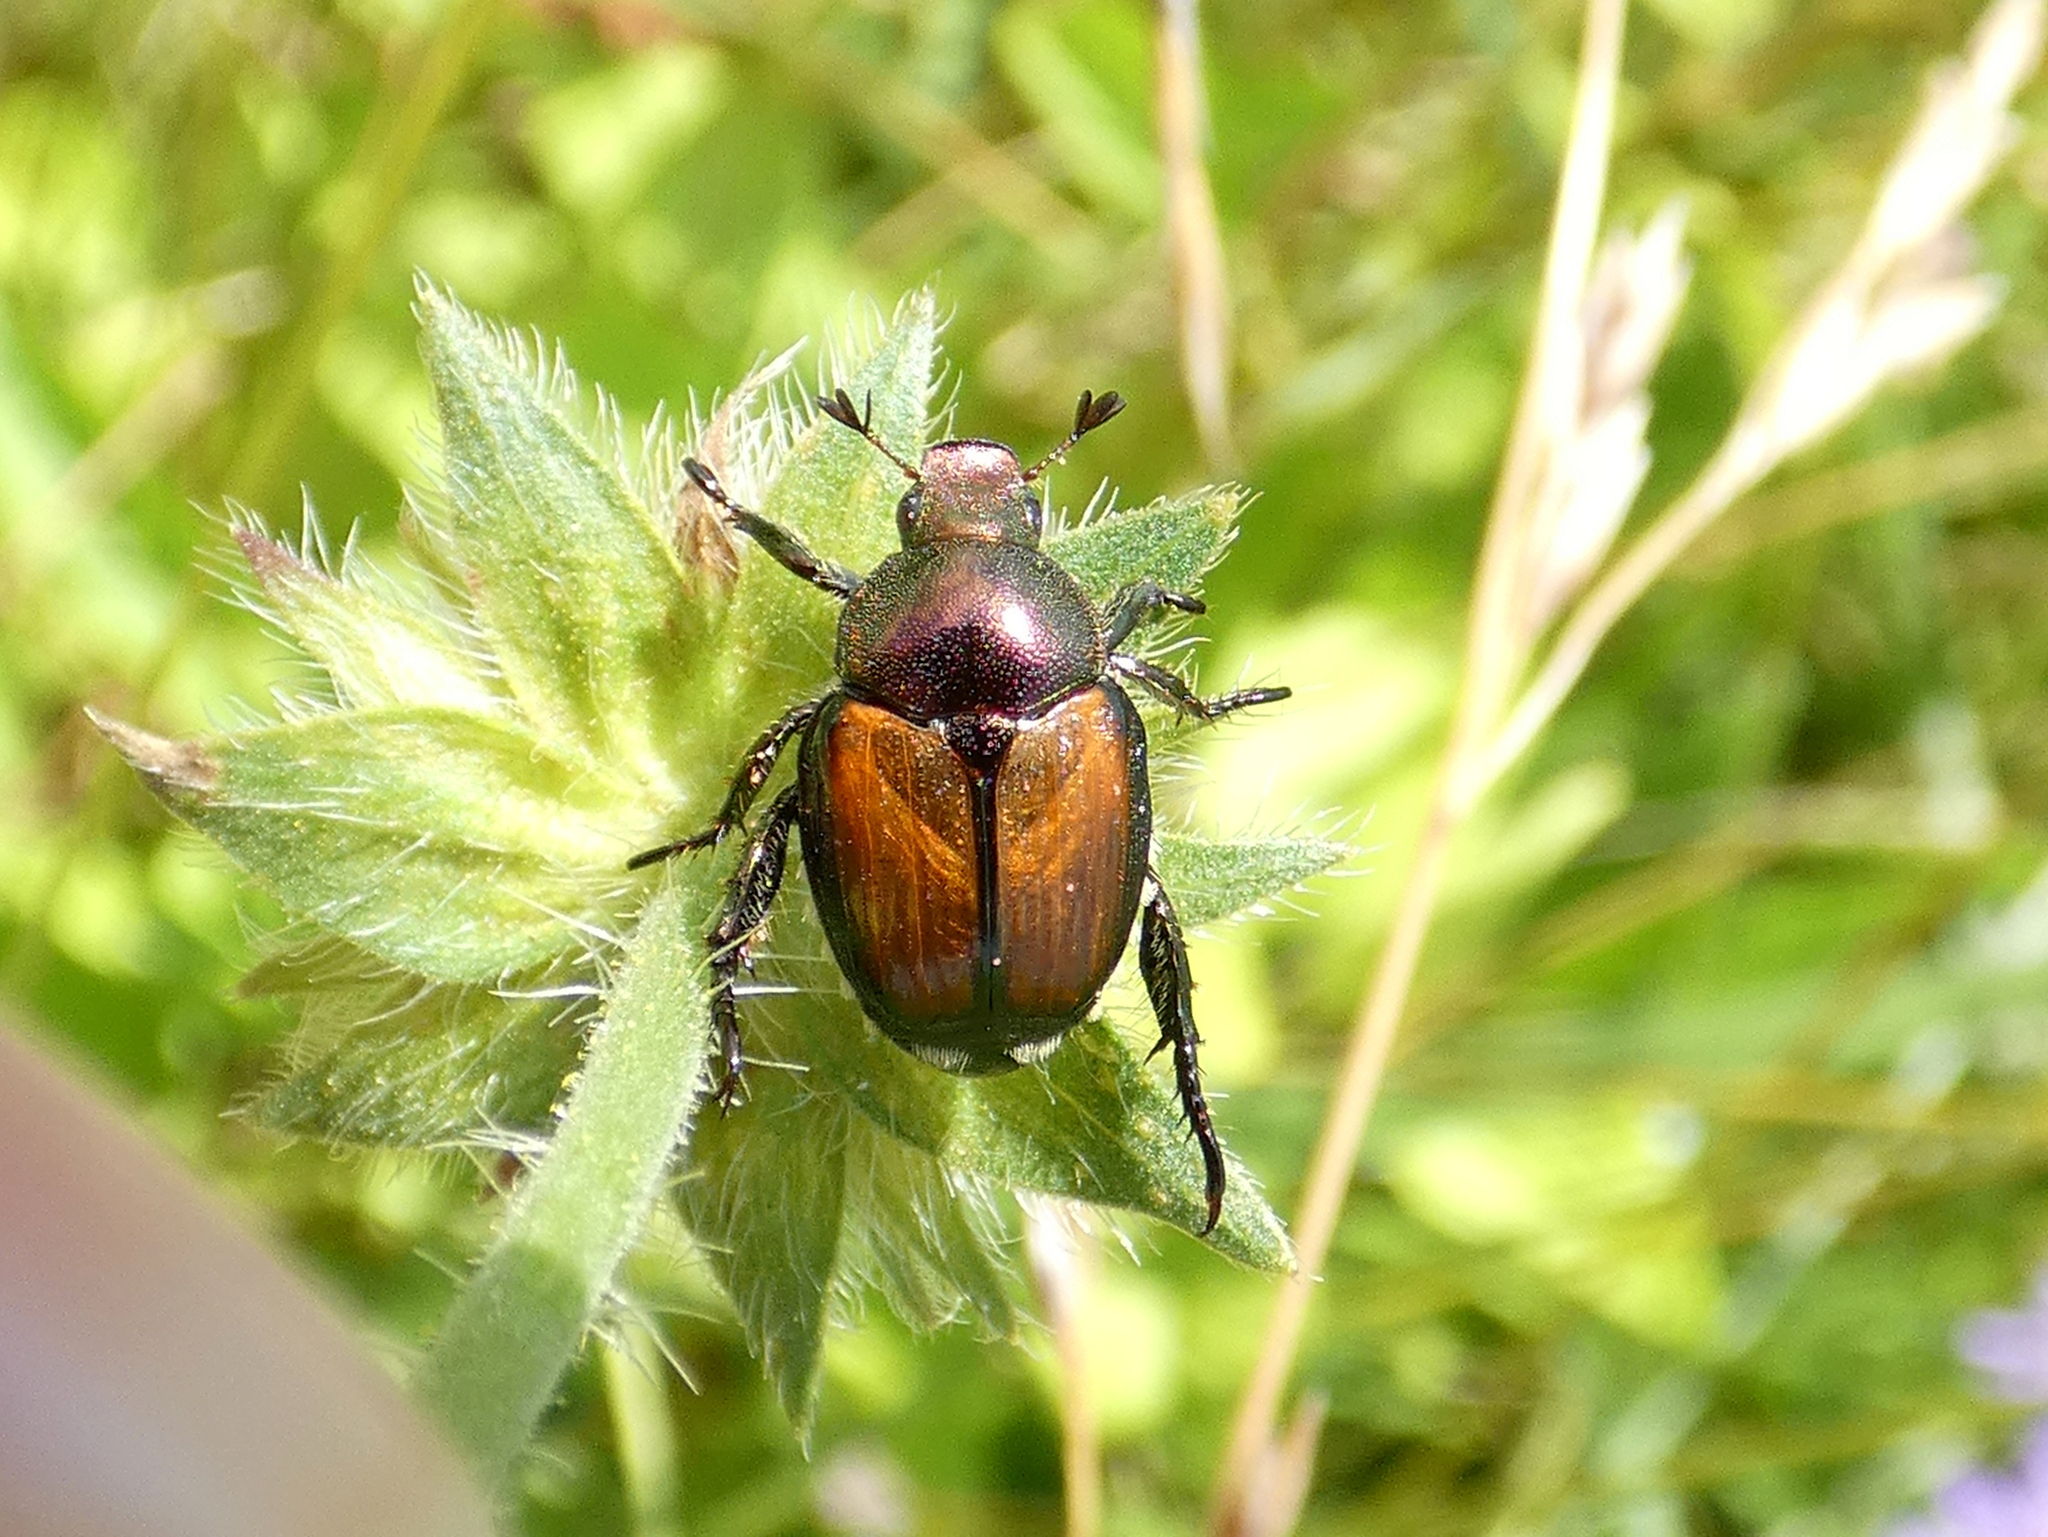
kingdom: Animalia
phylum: Arthropoda
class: Insecta
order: Coleoptera
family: Scarabaeidae
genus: Popillia
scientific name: Popillia japonica
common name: Japanese beetle
